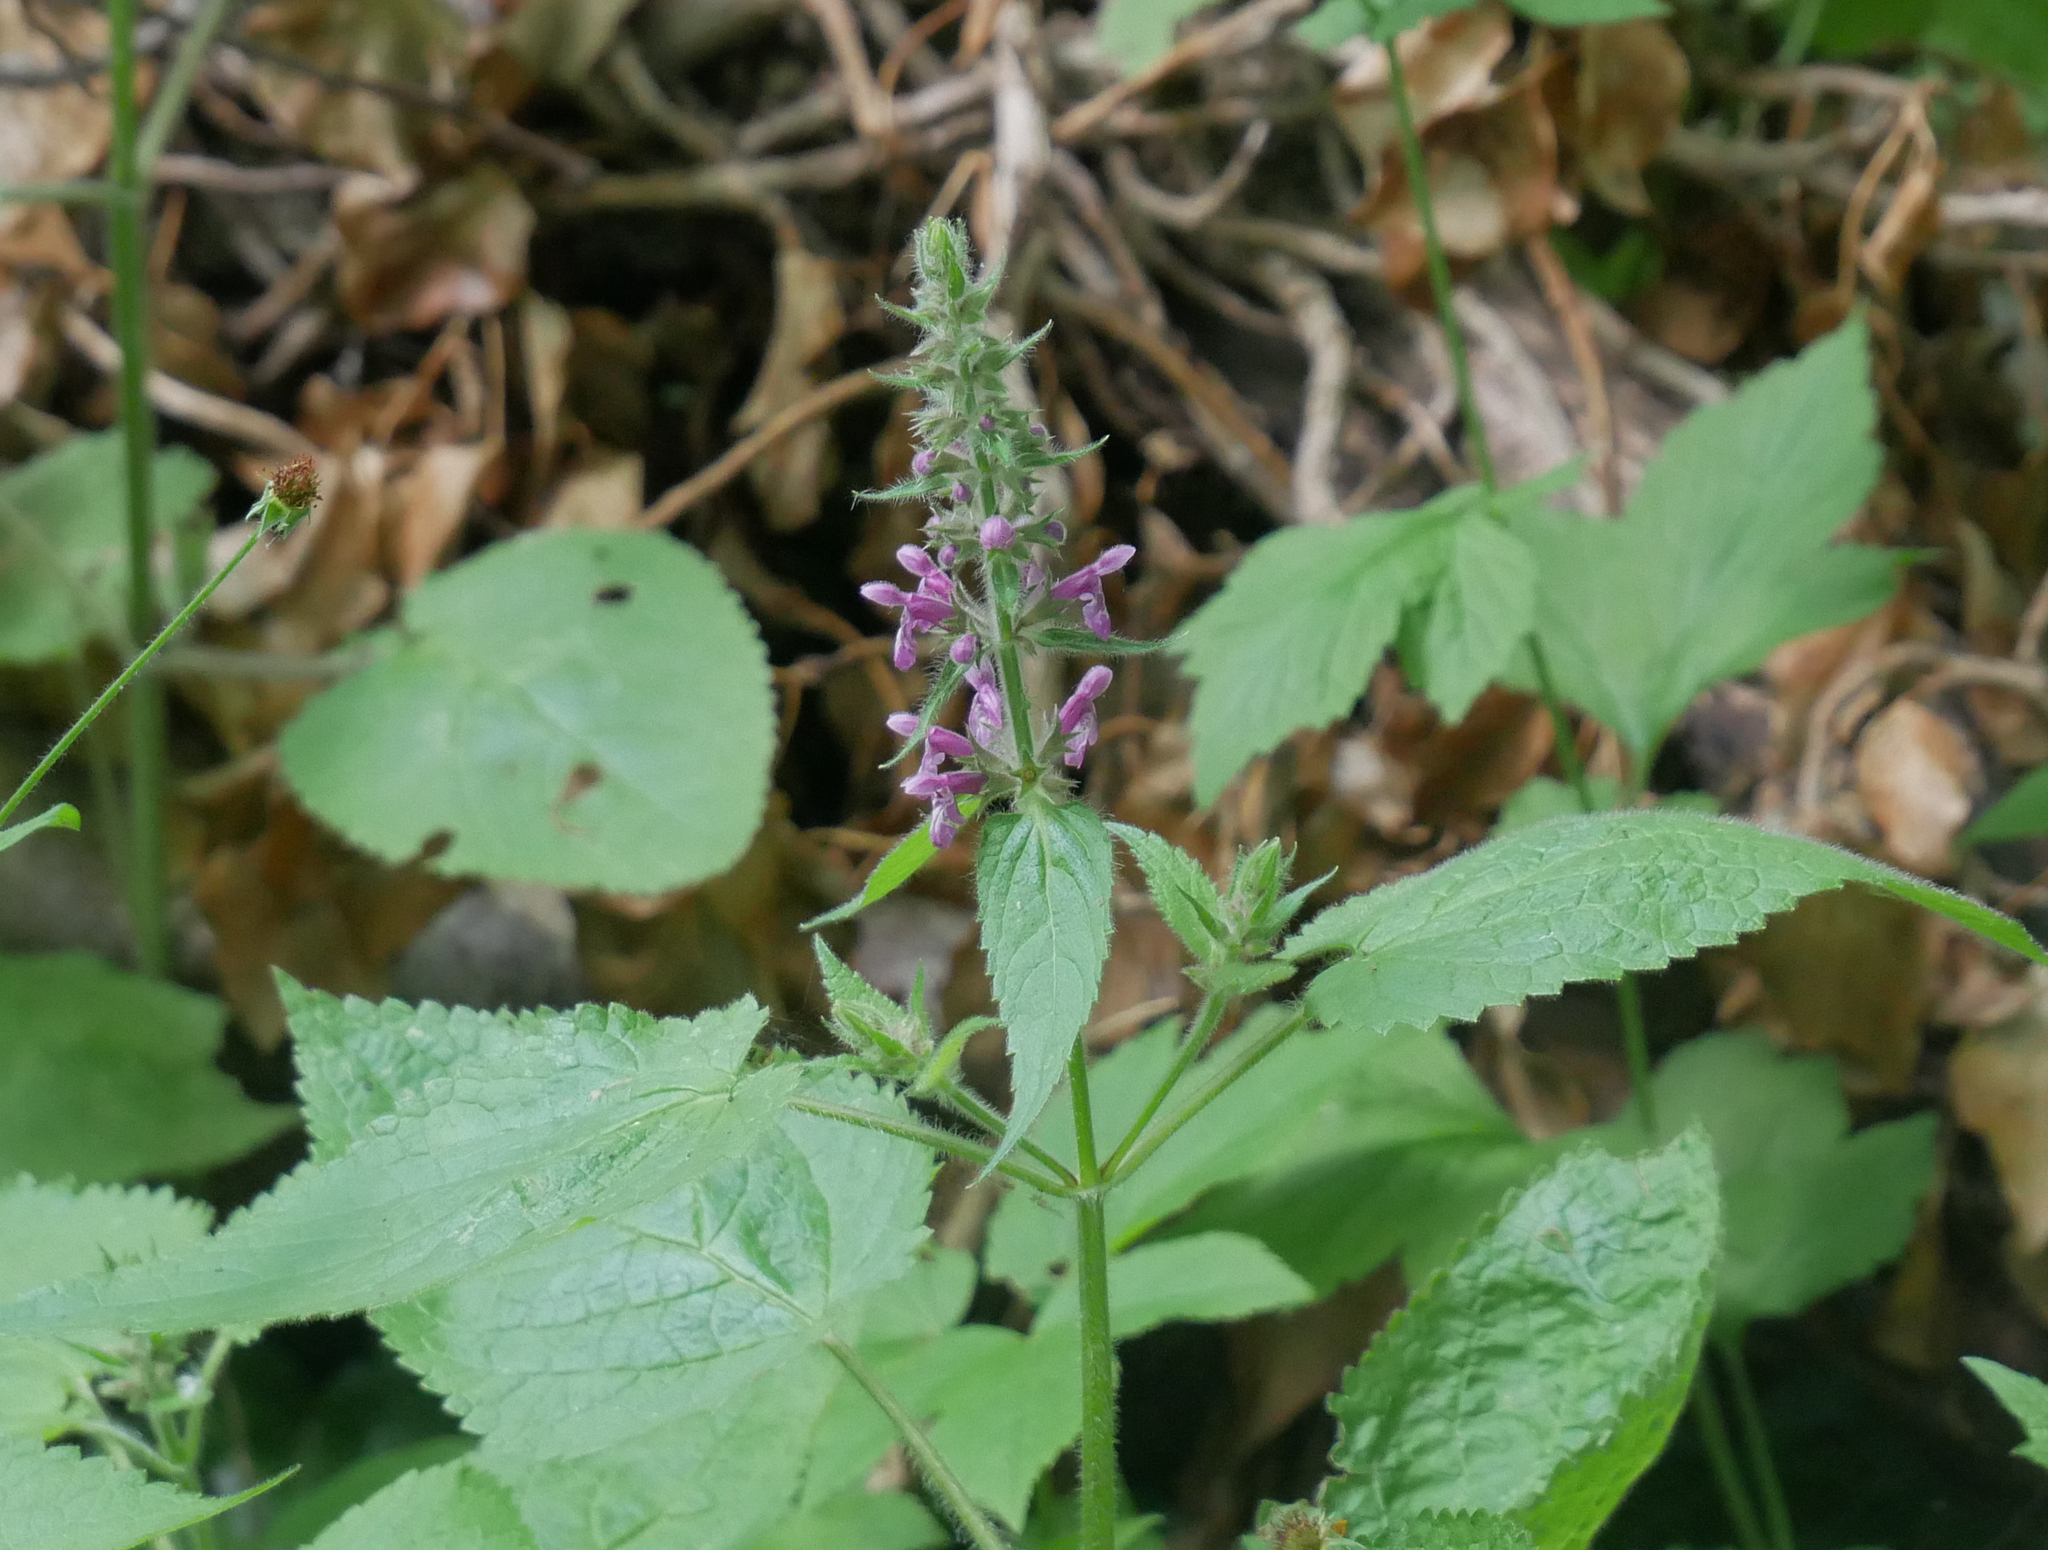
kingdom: Plantae
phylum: Tracheophyta
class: Magnoliopsida
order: Lamiales
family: Lamiaceae
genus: Stachys
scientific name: Stachys sylvatica
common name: Hedge woundwort
